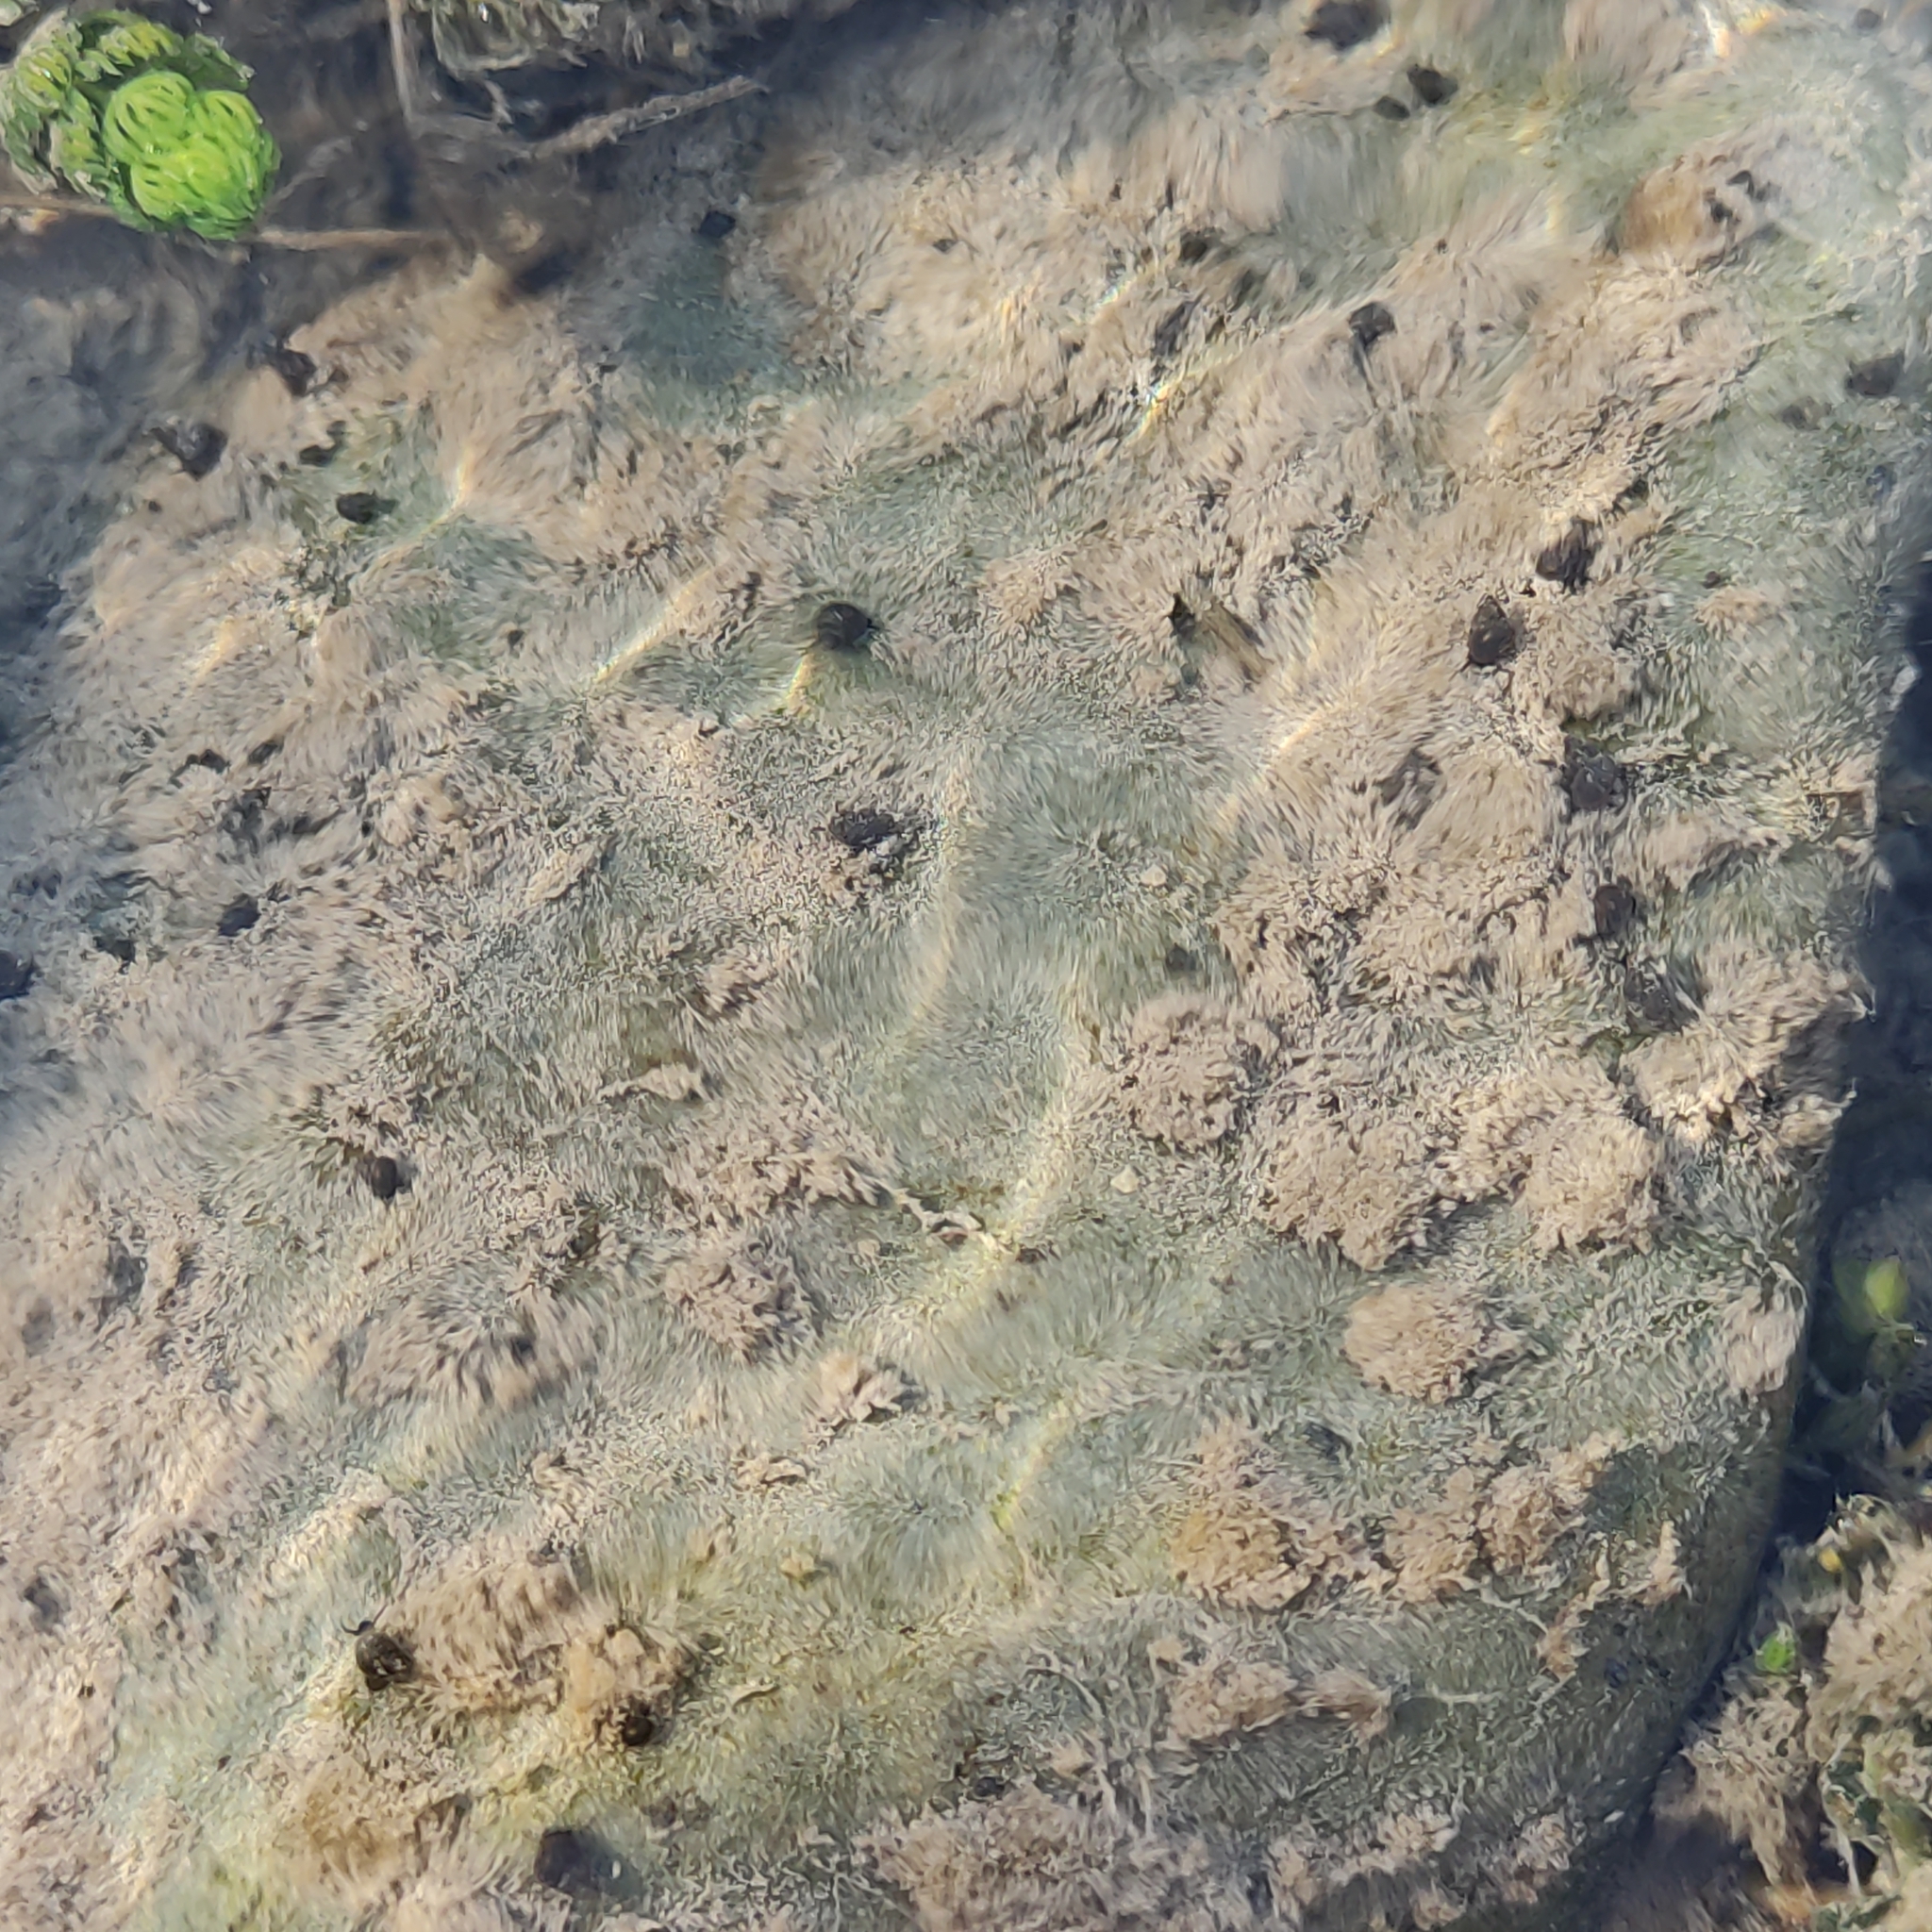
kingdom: Animalia
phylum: Mollusca
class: Gastropoda
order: Littorinimorpha
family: Tateidae
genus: Potamopyrgus
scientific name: Potamopyrgus antipodarum
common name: Jenkins' spire snail
